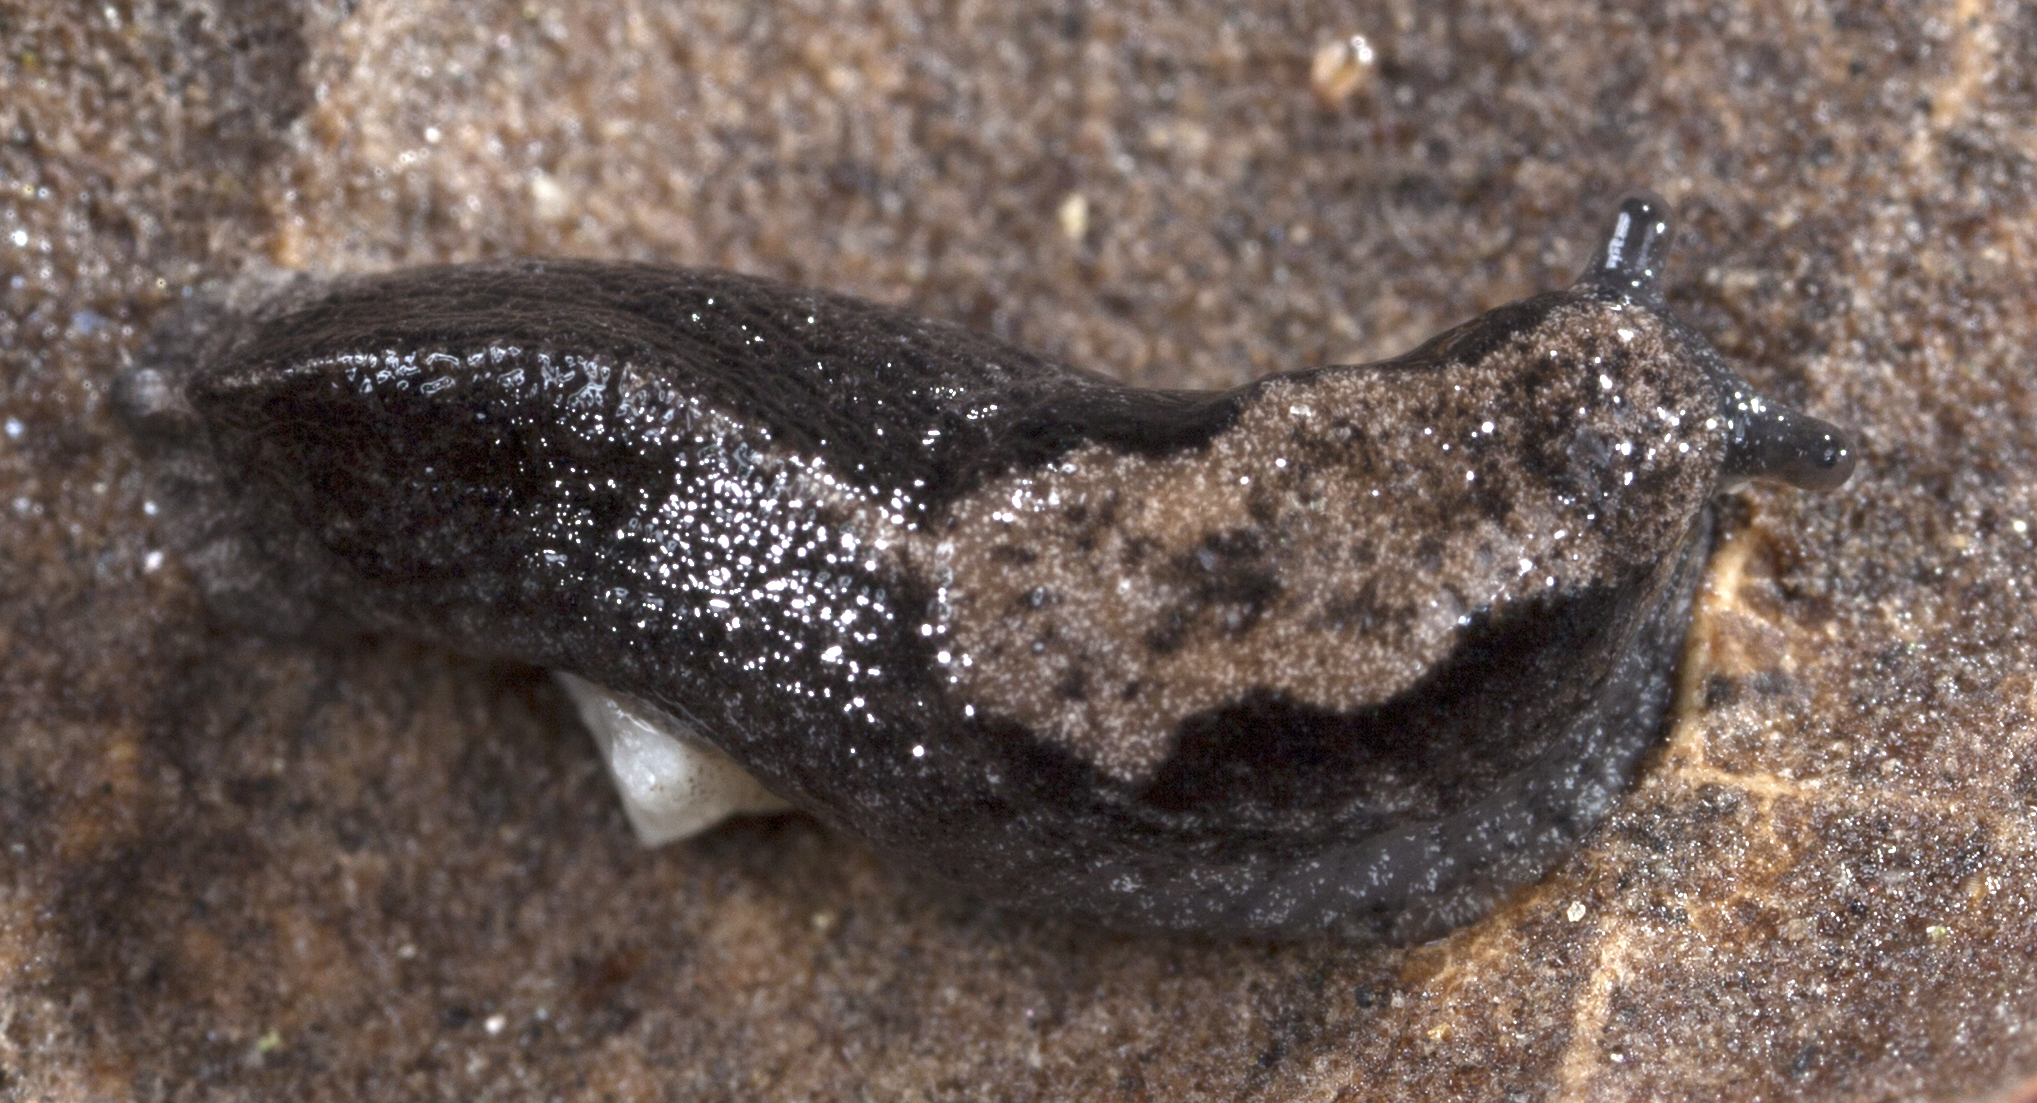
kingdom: Animalia
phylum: Mollusca
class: Gastropoda
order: Stylommatophora
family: Ariolimacidae
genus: Anadenulus
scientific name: Anadenulus cockerelli
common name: American keeled slug
